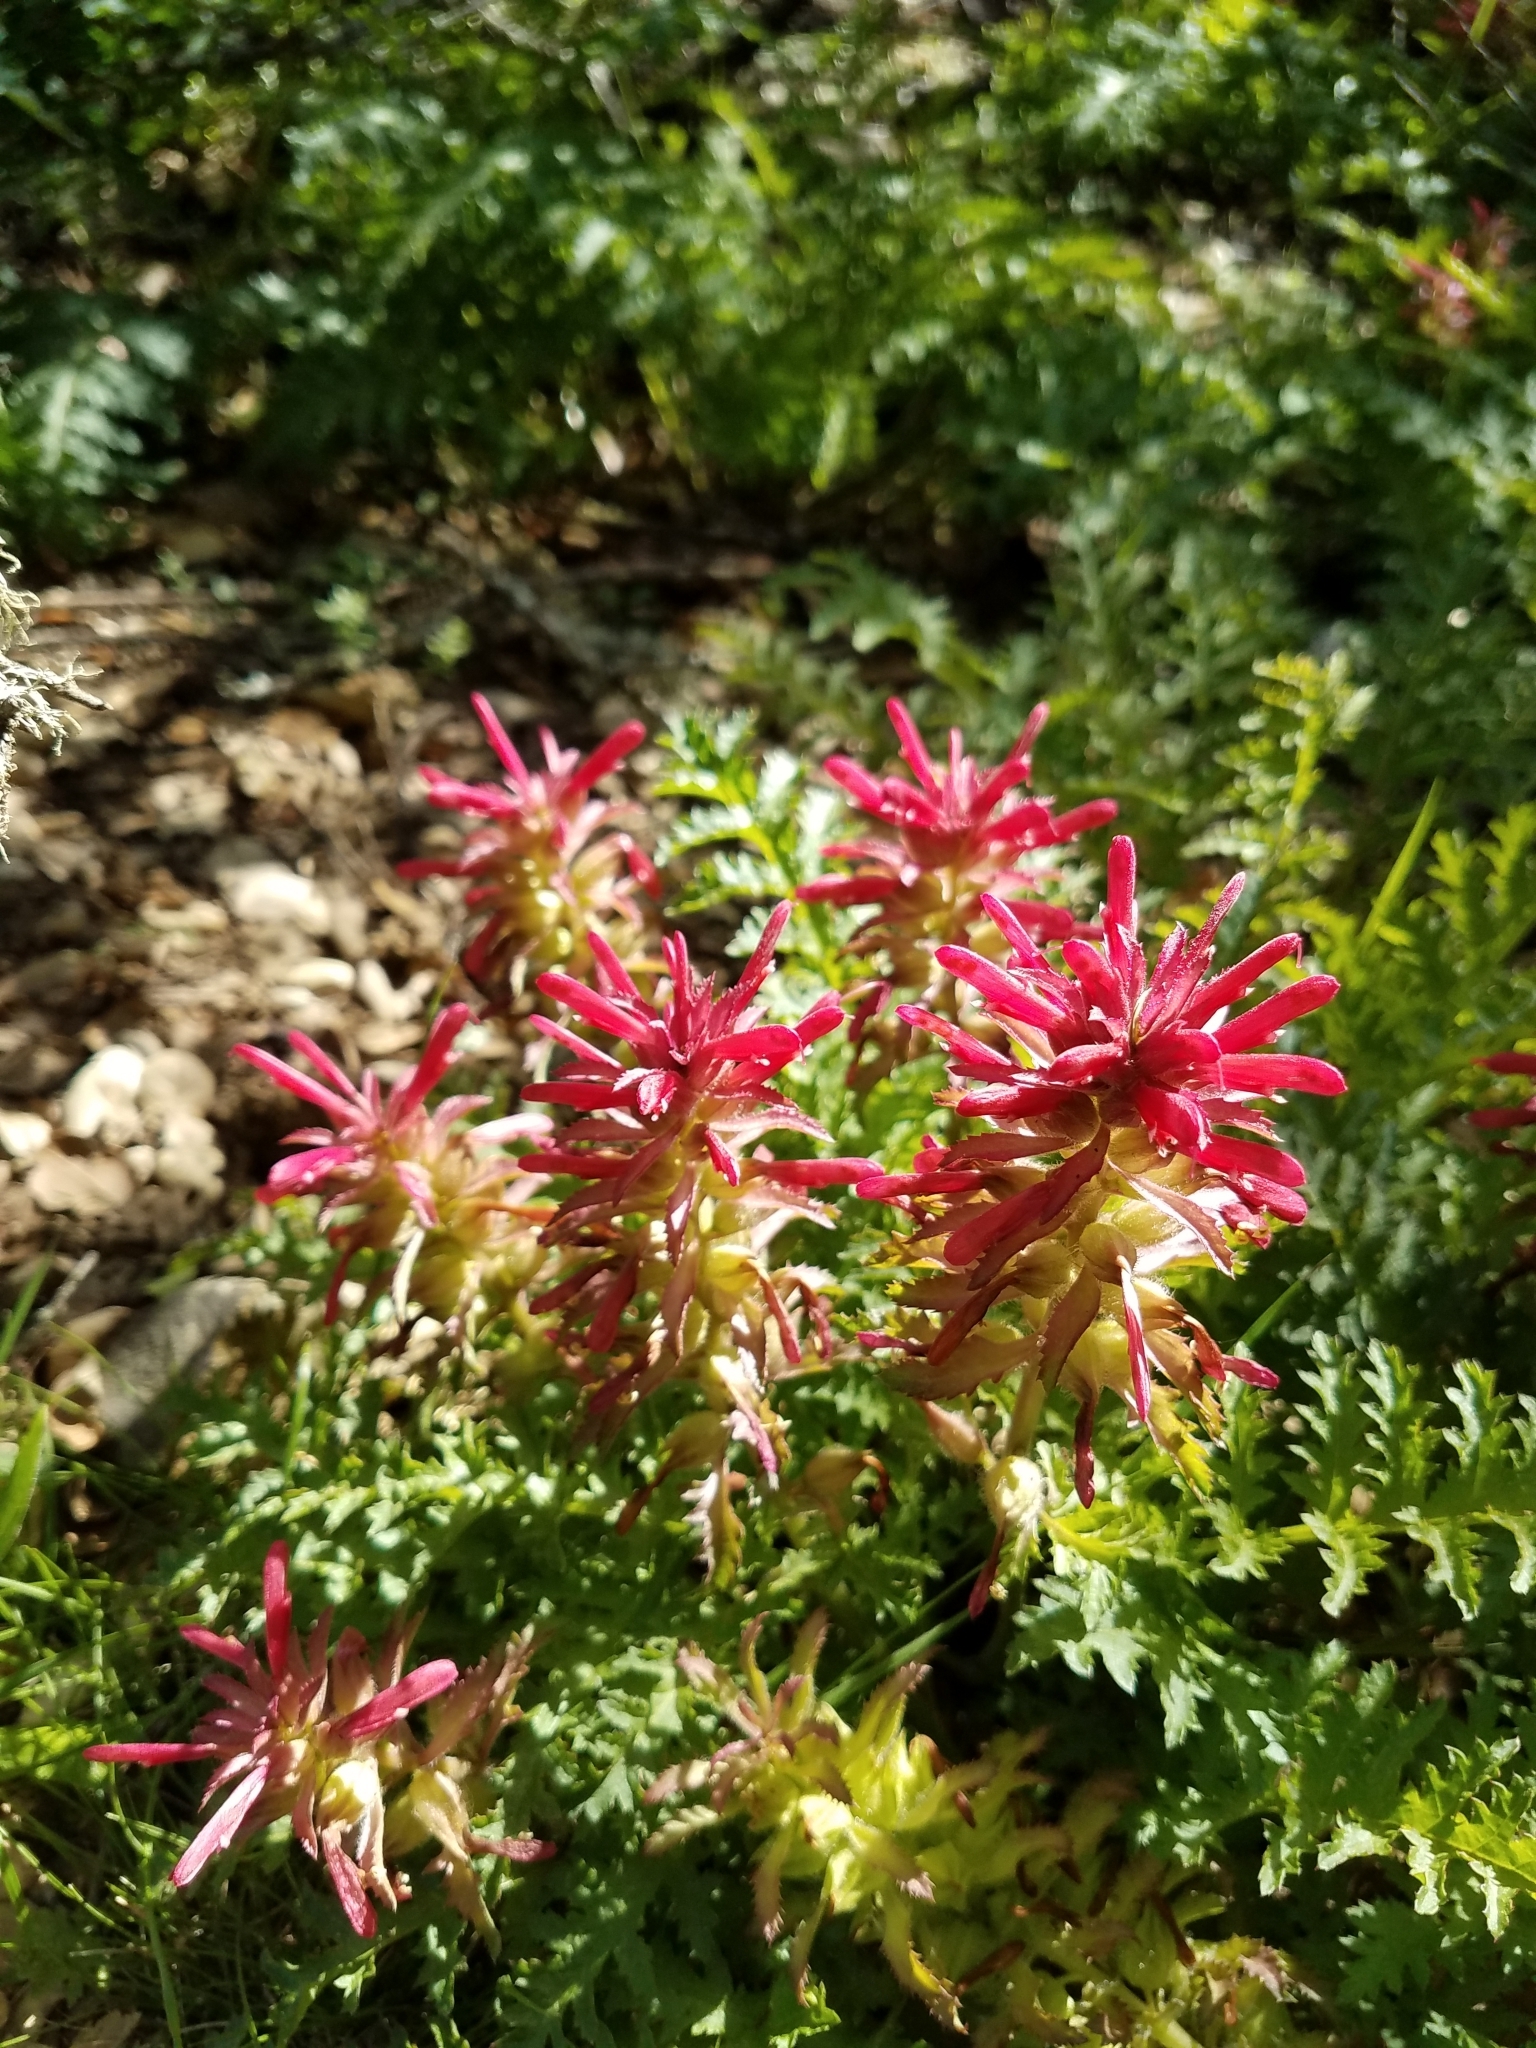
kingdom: Plantae
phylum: Tracheophyta
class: Magnoliopsida
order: Lamiales
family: Orobanchaceae
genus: Pedicularis
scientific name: Pedicularis densiflora
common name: Indian warrior
